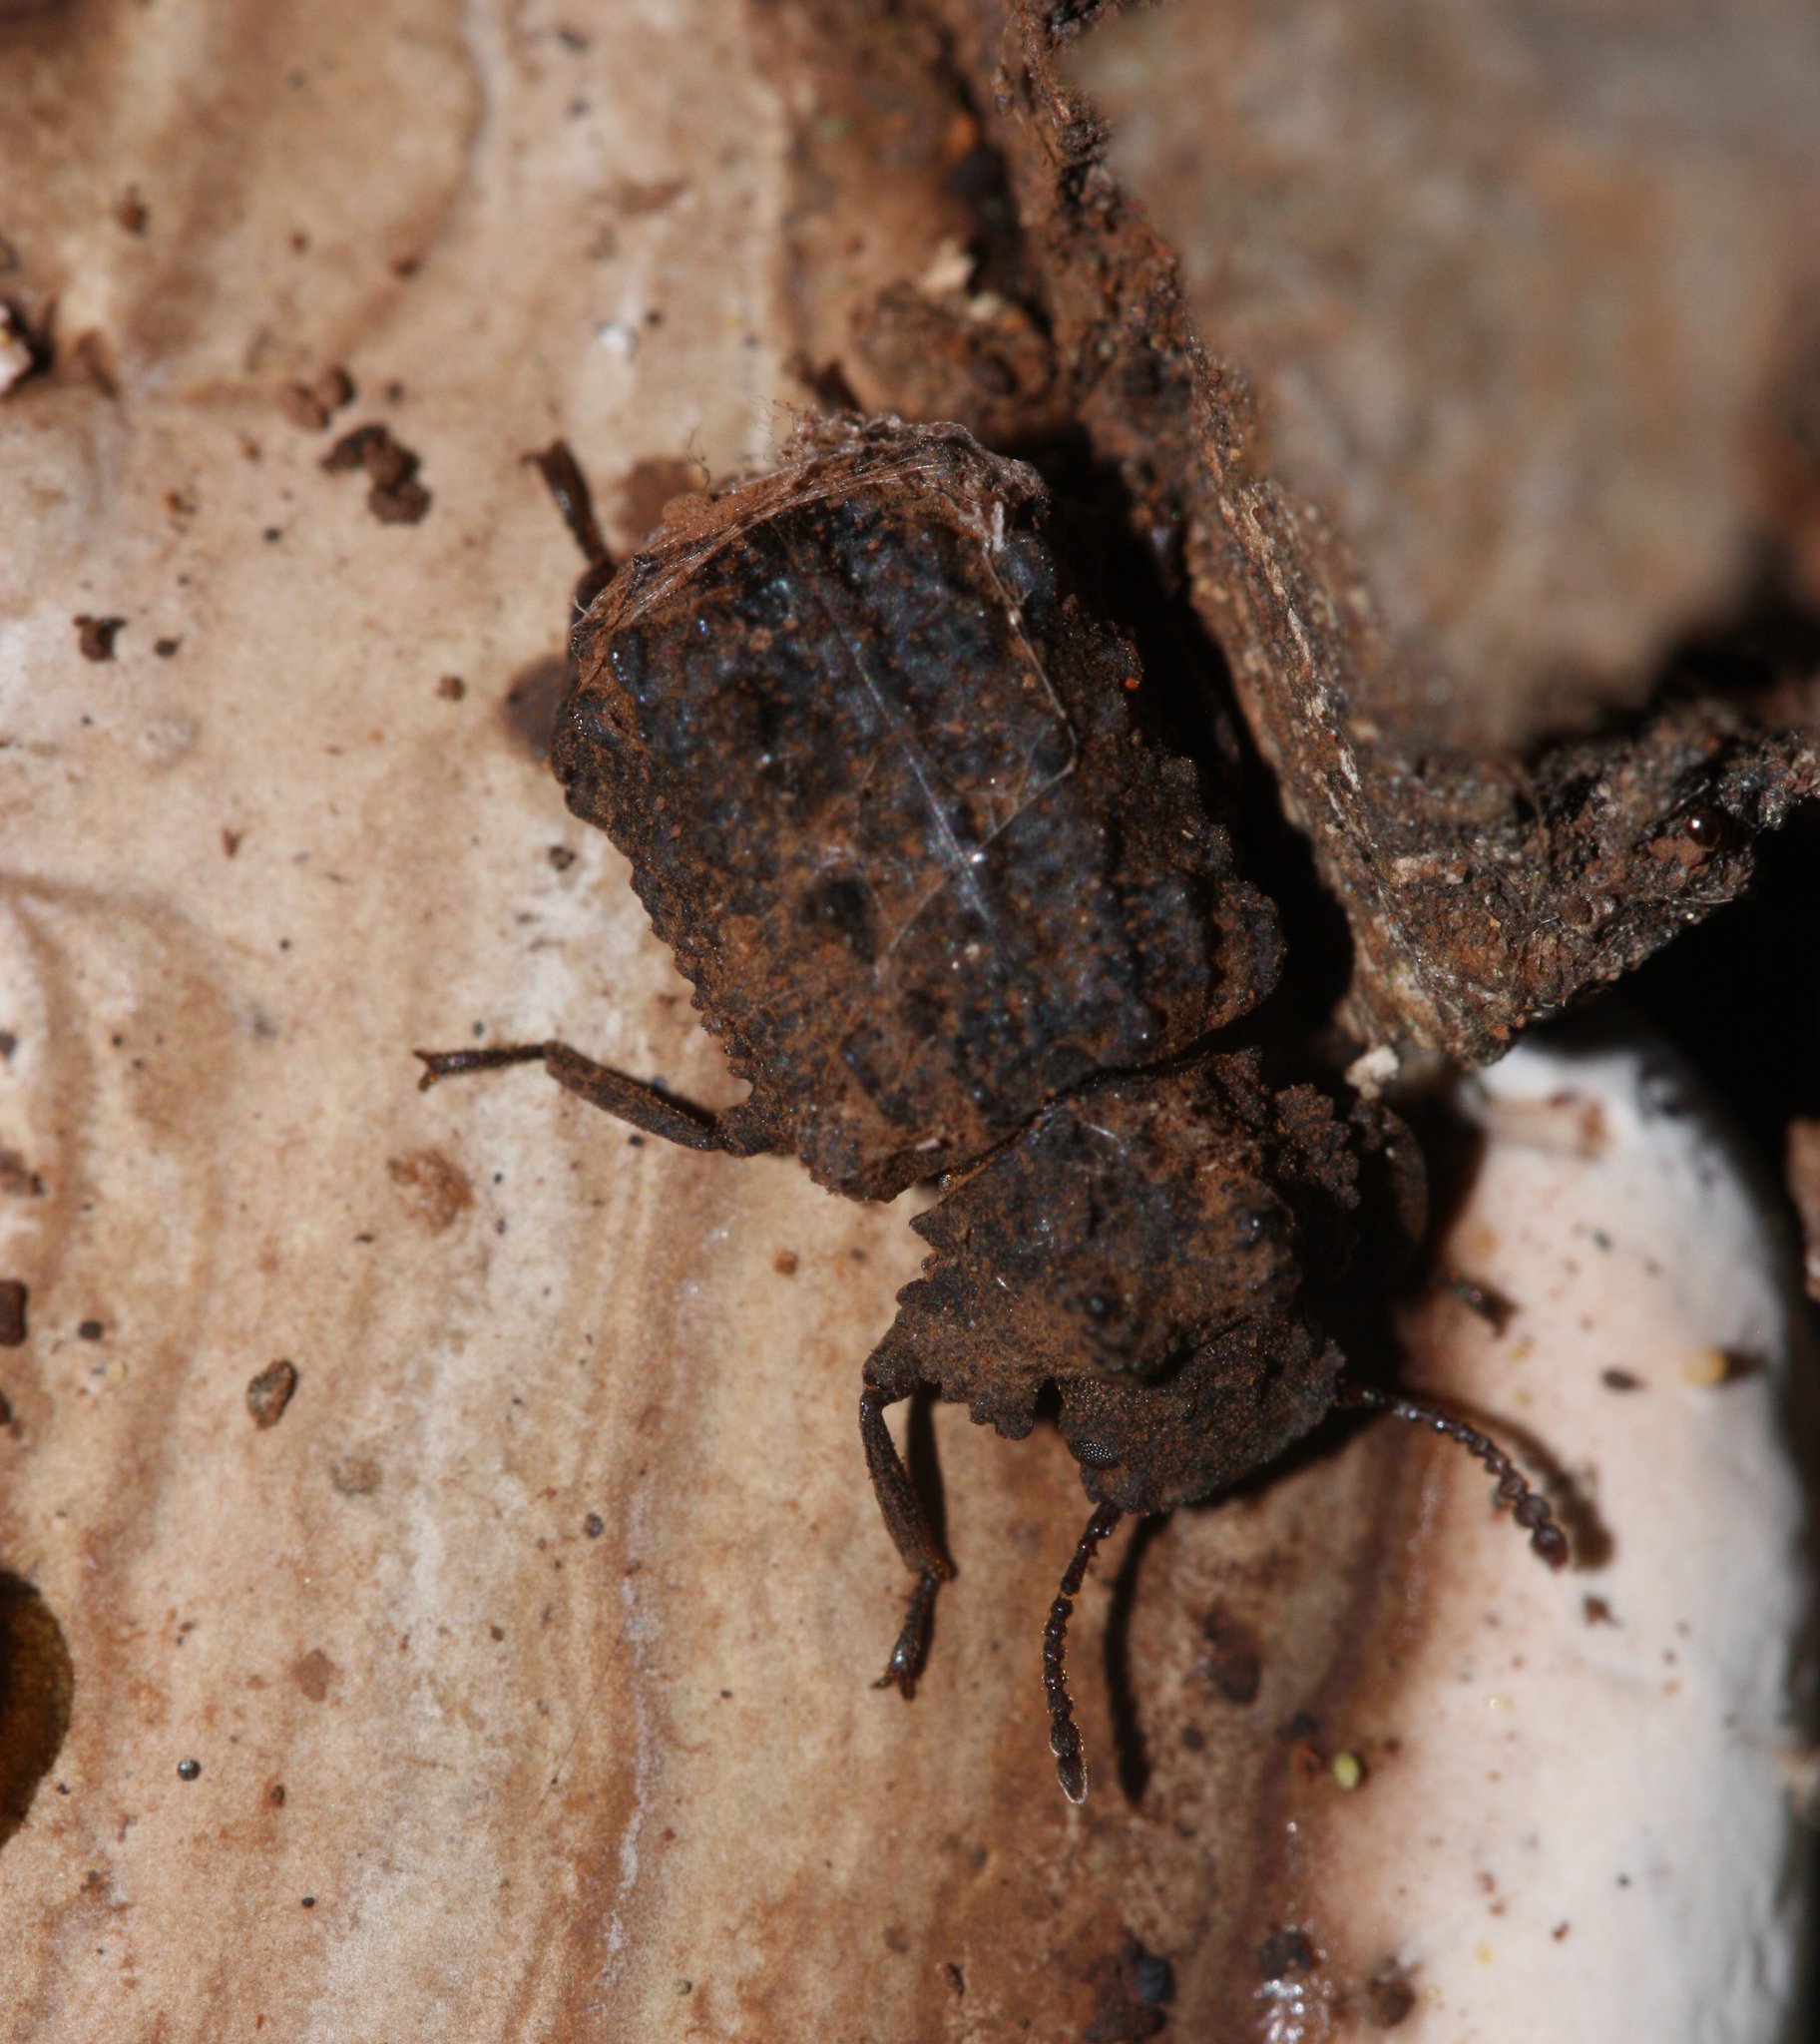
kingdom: Animalia
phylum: Arthropoda
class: Insecta
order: Coleoptera
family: Tenebrionidae
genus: Gnatocerus
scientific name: Gnatocerus cornutus
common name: Broad-horned flour beetle
